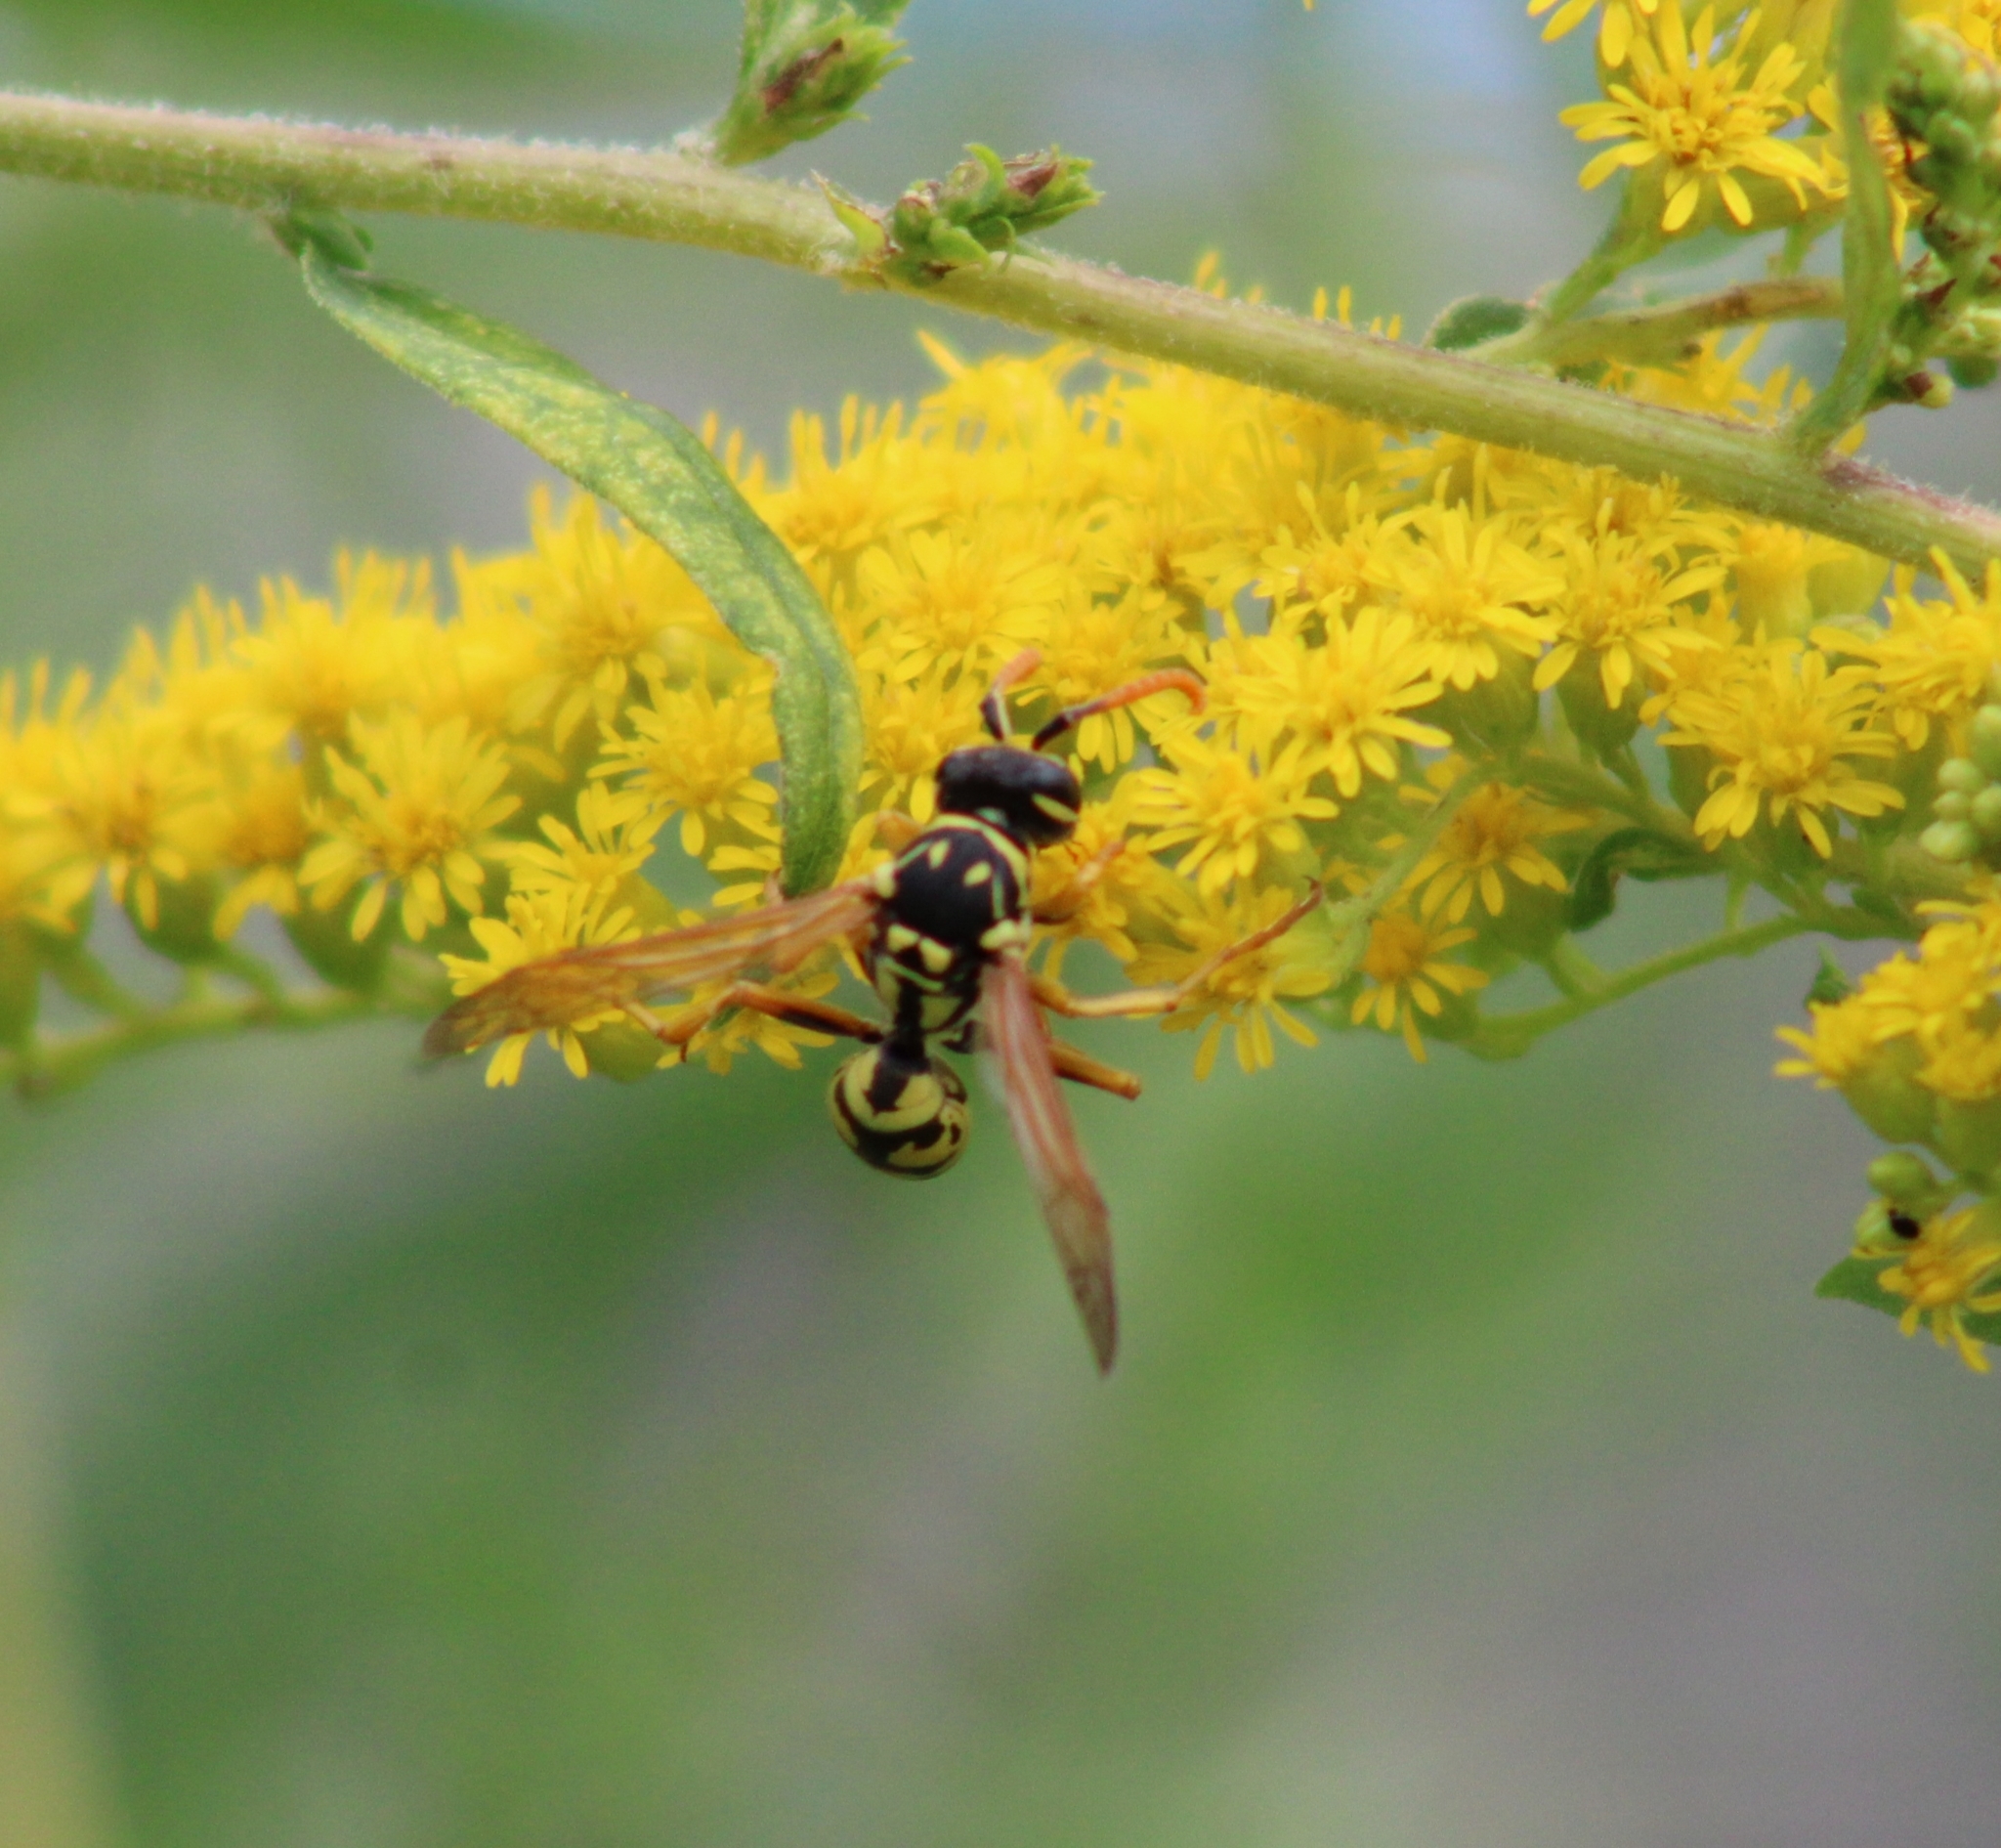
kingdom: Animalia
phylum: Arthropoda
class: Insecta
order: Hymenoptera
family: Eumenidae
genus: Polistes
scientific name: Polistes dominula
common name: Paper wasp
